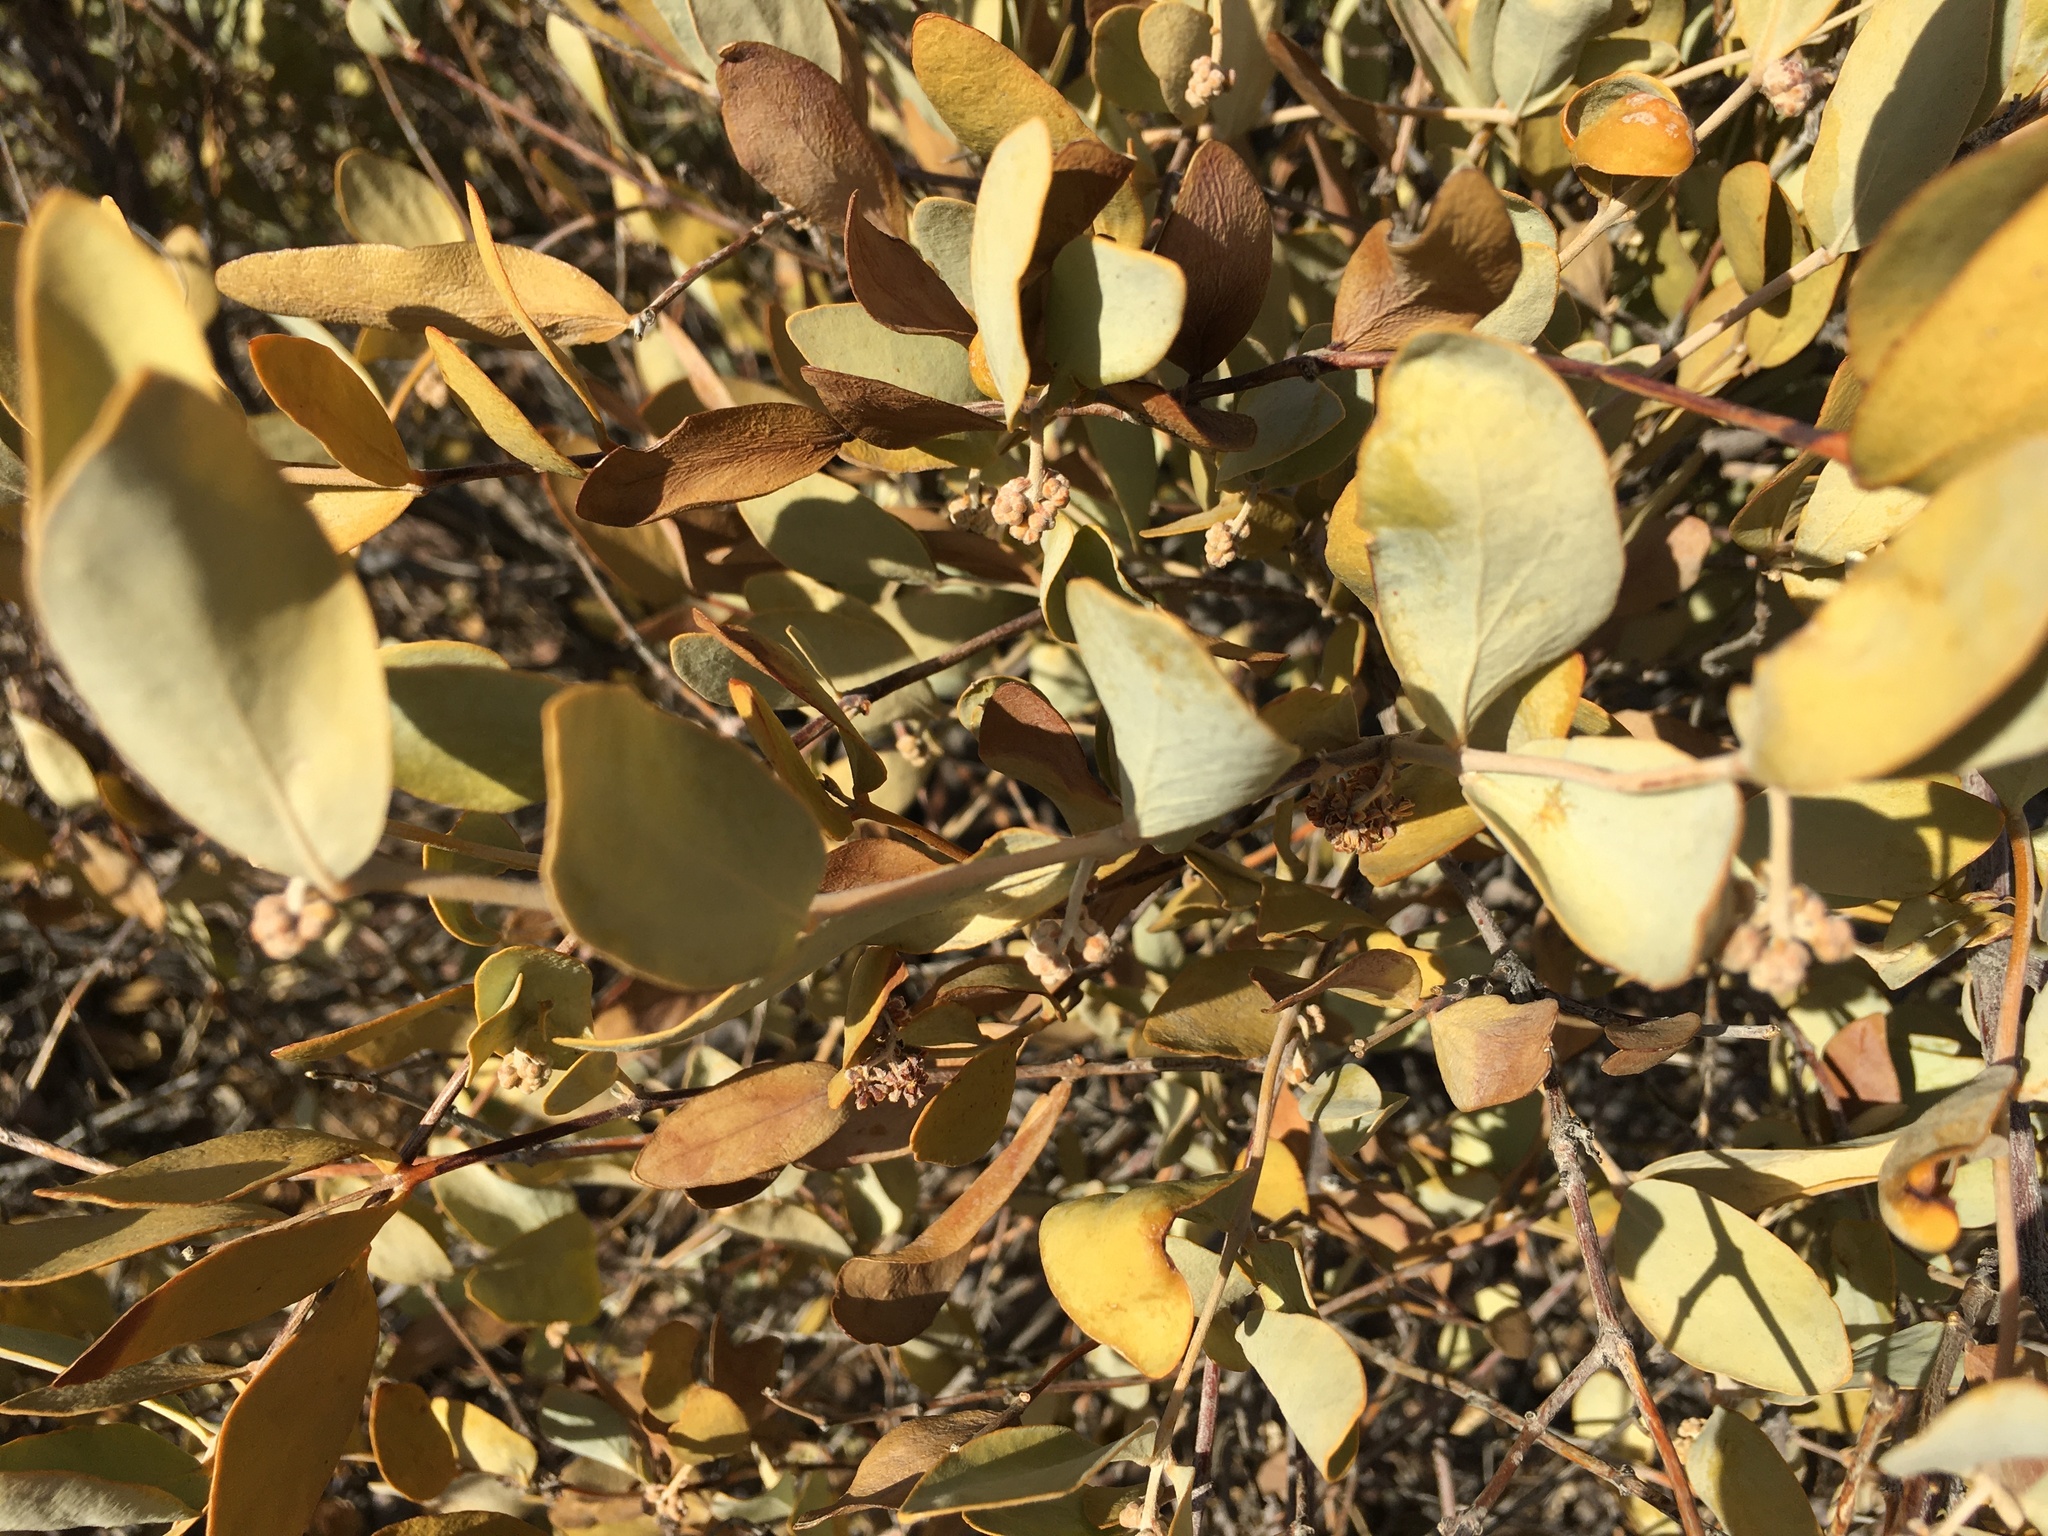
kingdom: Plantae
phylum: Tracheophyta
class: Magnoliopsida
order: Caryophyllales
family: Simmondsiaceae
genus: Simmondsia
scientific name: Simmondsia chinensis
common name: Jojoba
